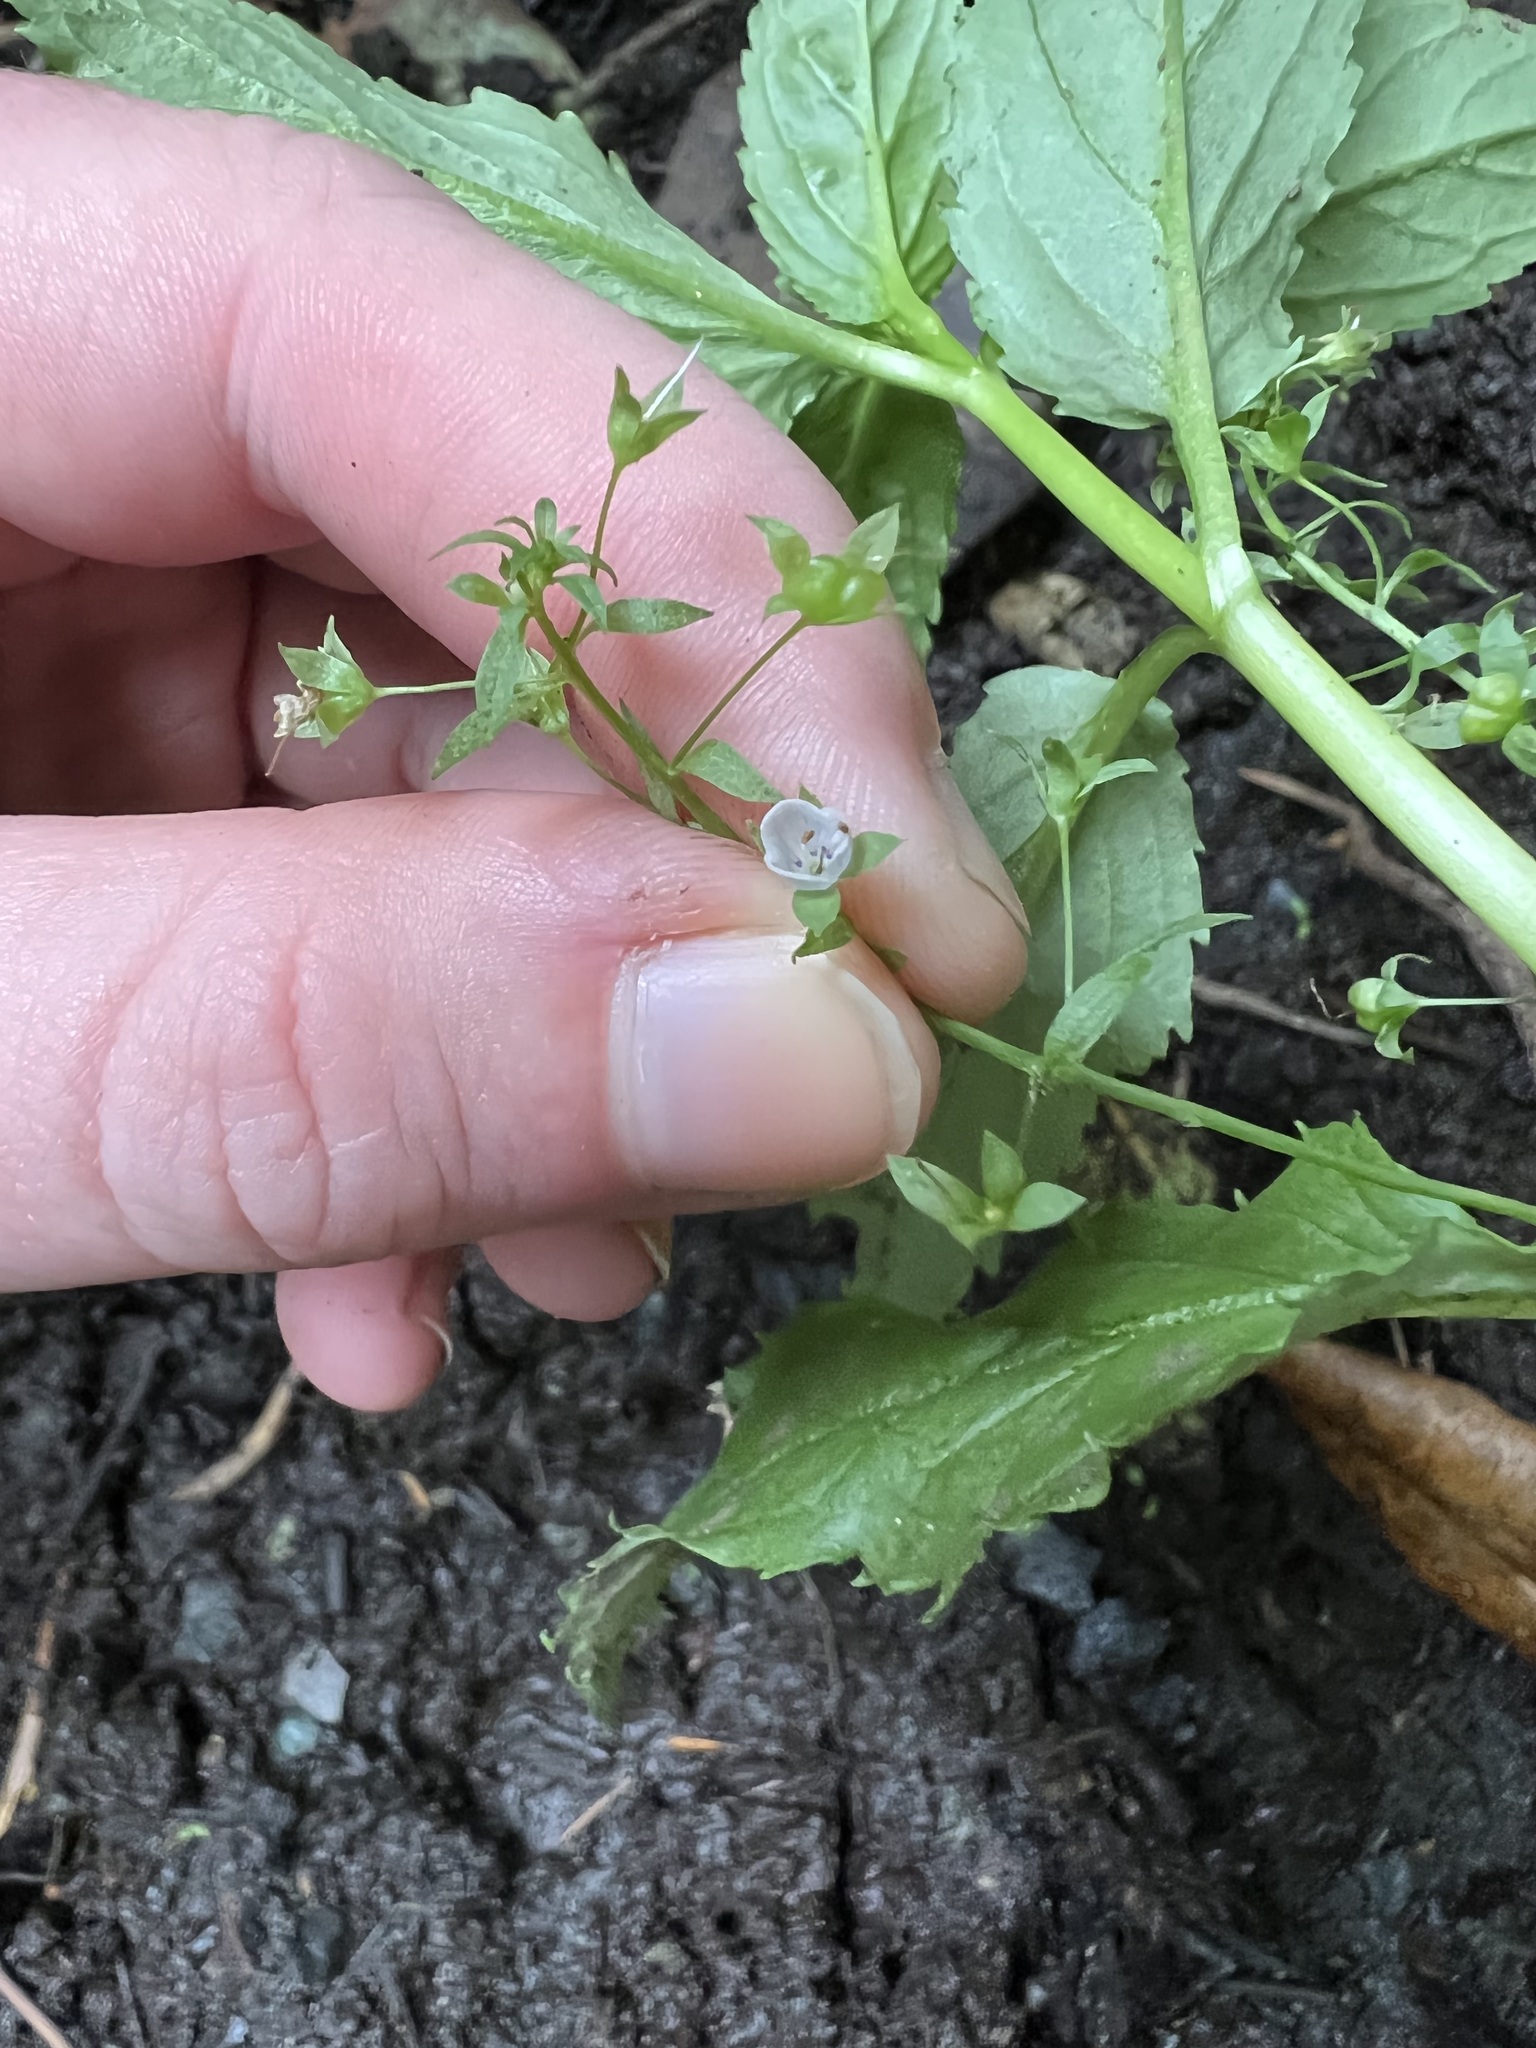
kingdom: Plantae
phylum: Tracheophyta
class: Magnoliopsida
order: Lamiales
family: Plantaginaceae
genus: Veronica
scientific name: Veronica americana
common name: American brooklime
